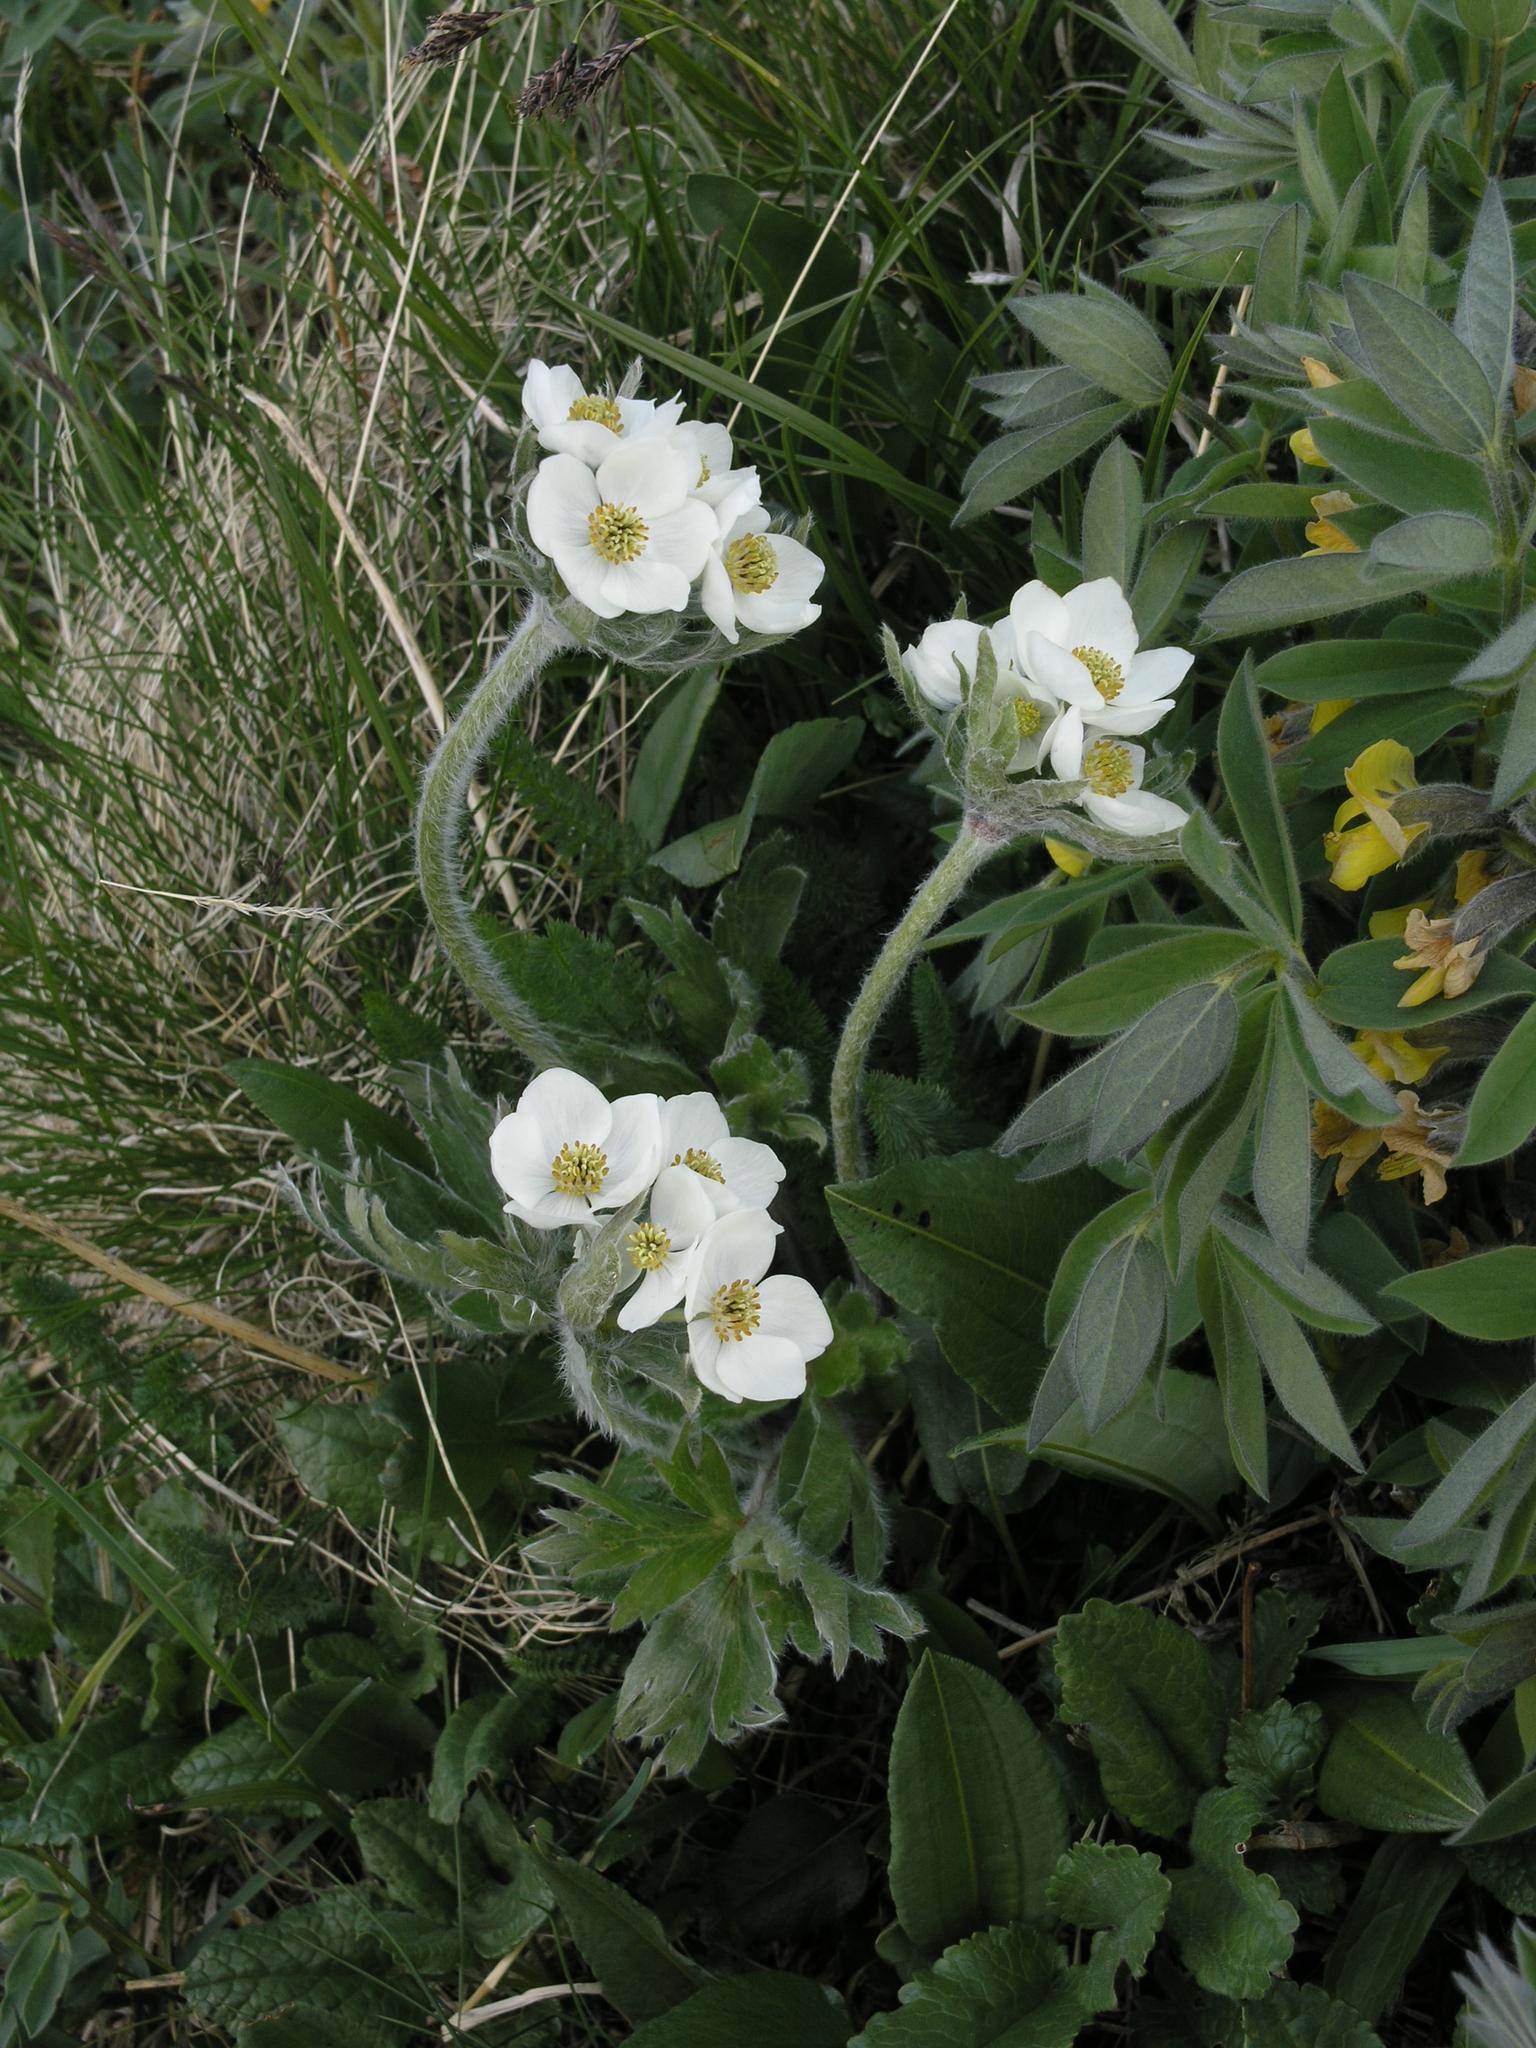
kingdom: Plantae
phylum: Tracheophyta
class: Magnoliopsida
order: Ranunculales
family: Ranunculaceae
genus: Anemonastrum
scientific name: Anemonastrum narcissiflorum
